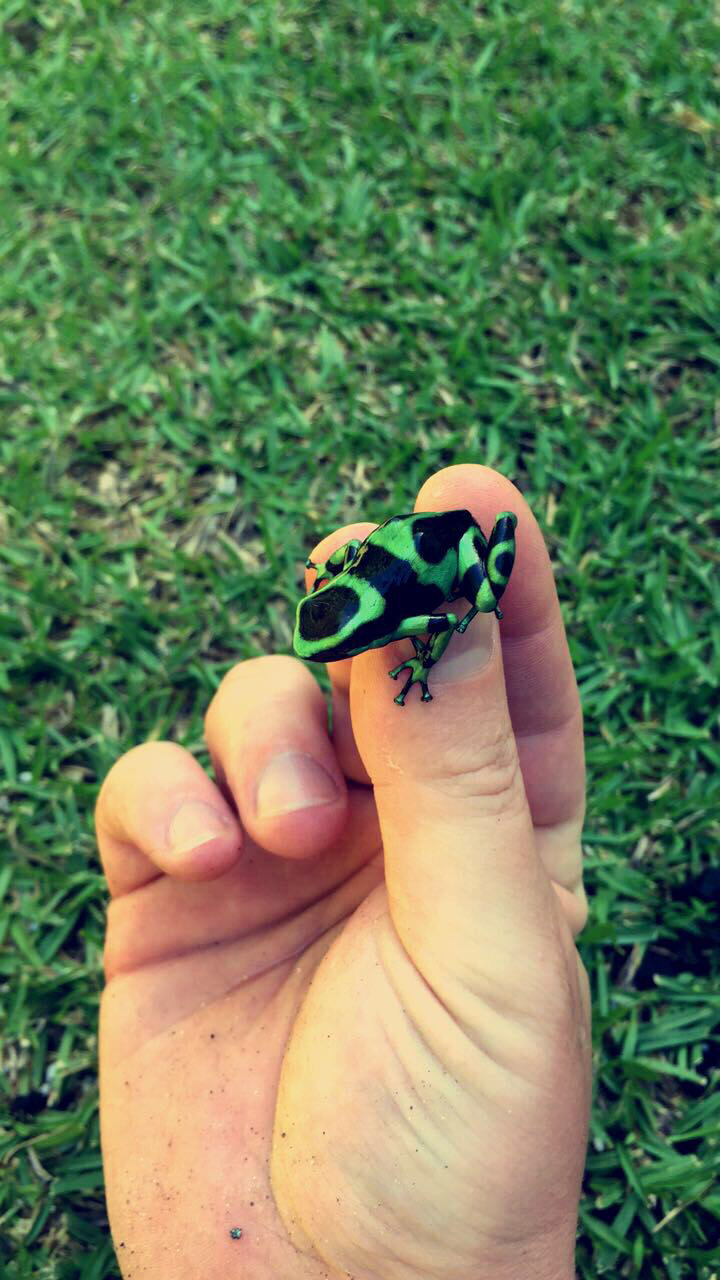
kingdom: Animalia
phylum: Chordata
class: Amphibia
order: Anura
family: Dendrobatidae
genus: Dendrobates
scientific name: Dendrobates auratus
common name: Green and black poison dart frog
